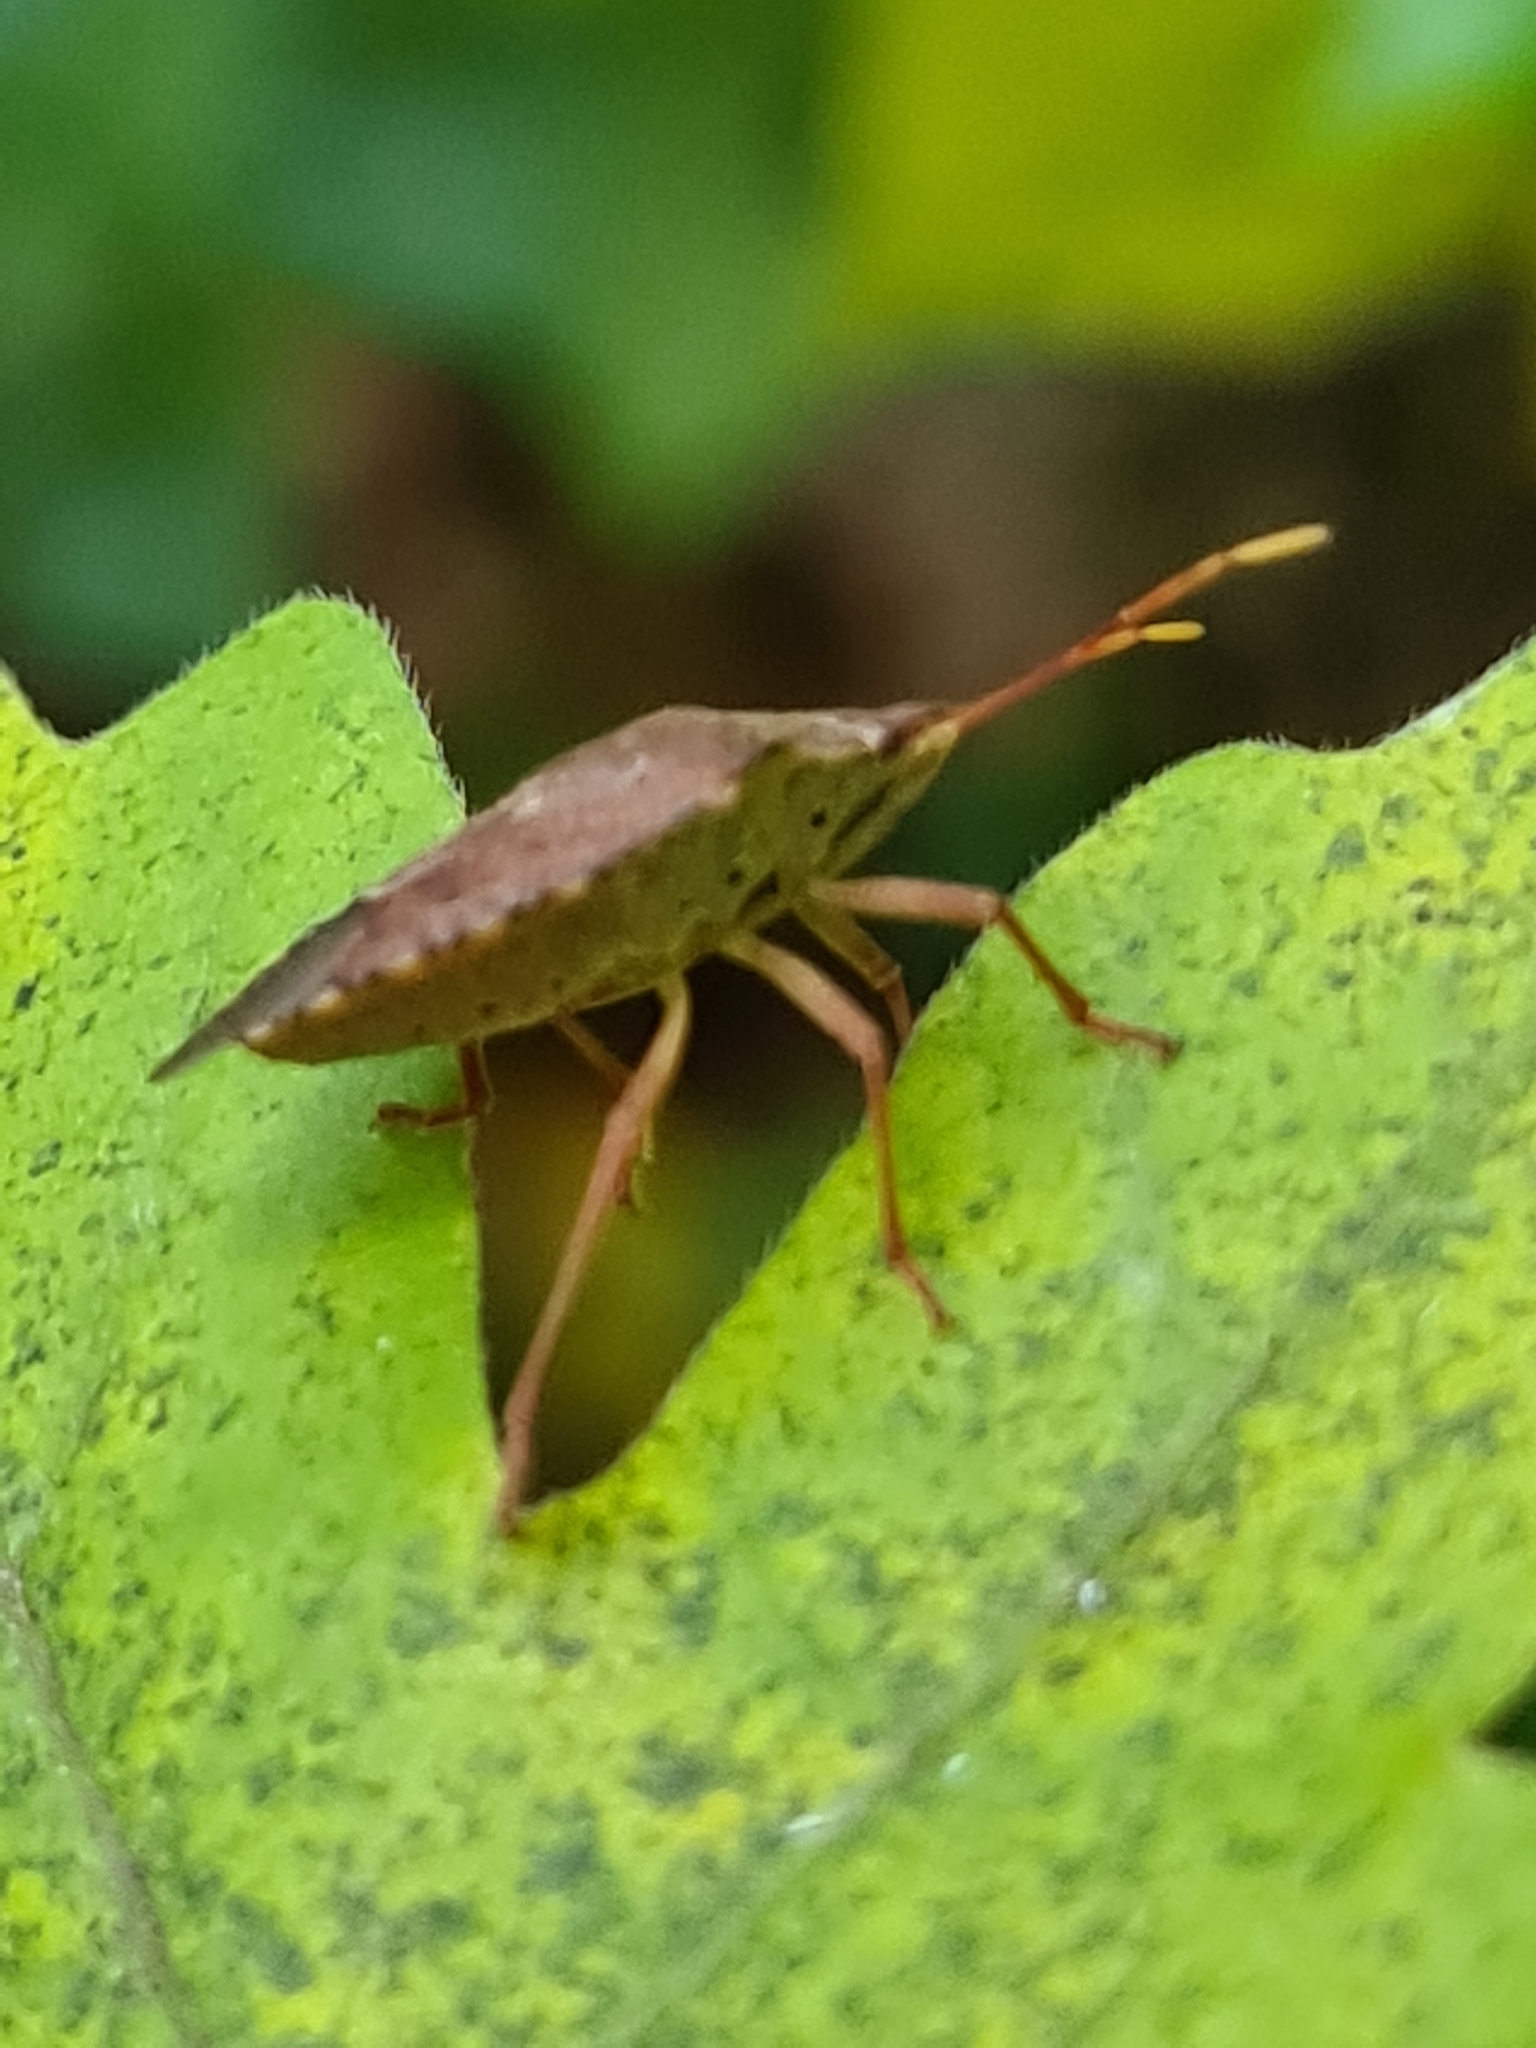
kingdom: Animalia
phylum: Arthropoda
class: Insecta
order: Hemiptera
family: Pentatomidae
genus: Arma
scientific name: Arma custos
